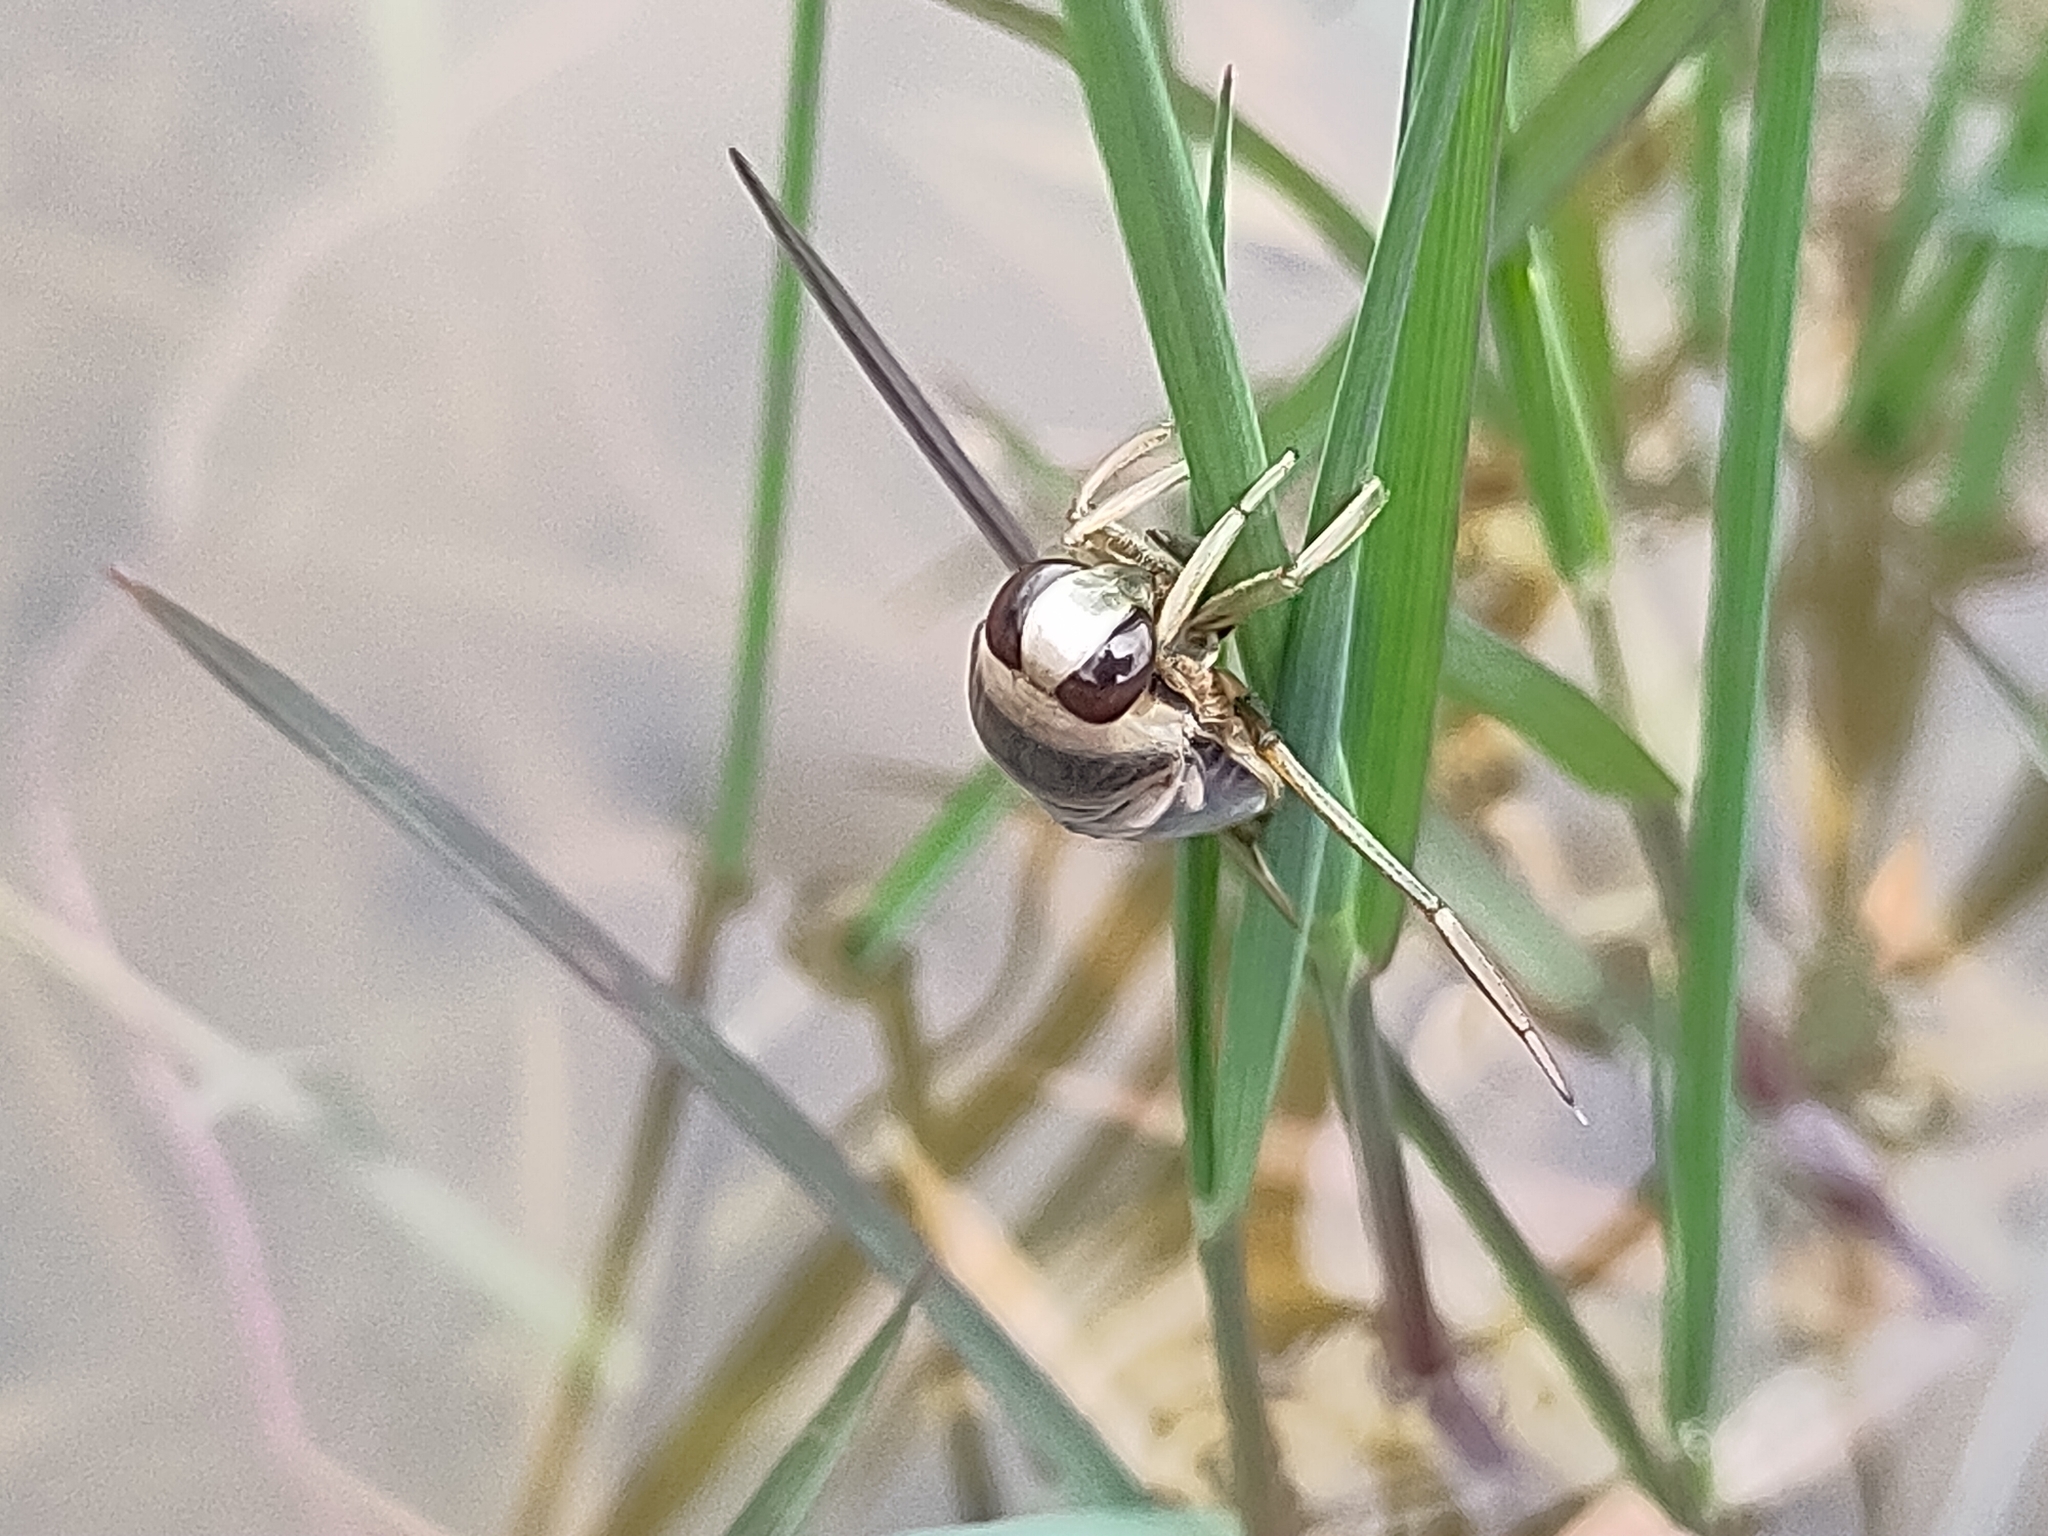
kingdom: Animalia
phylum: Arthropoda
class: Insecta
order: Hemiptera
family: Notonectidae
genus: Notonecta
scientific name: Notonecta obliqua
